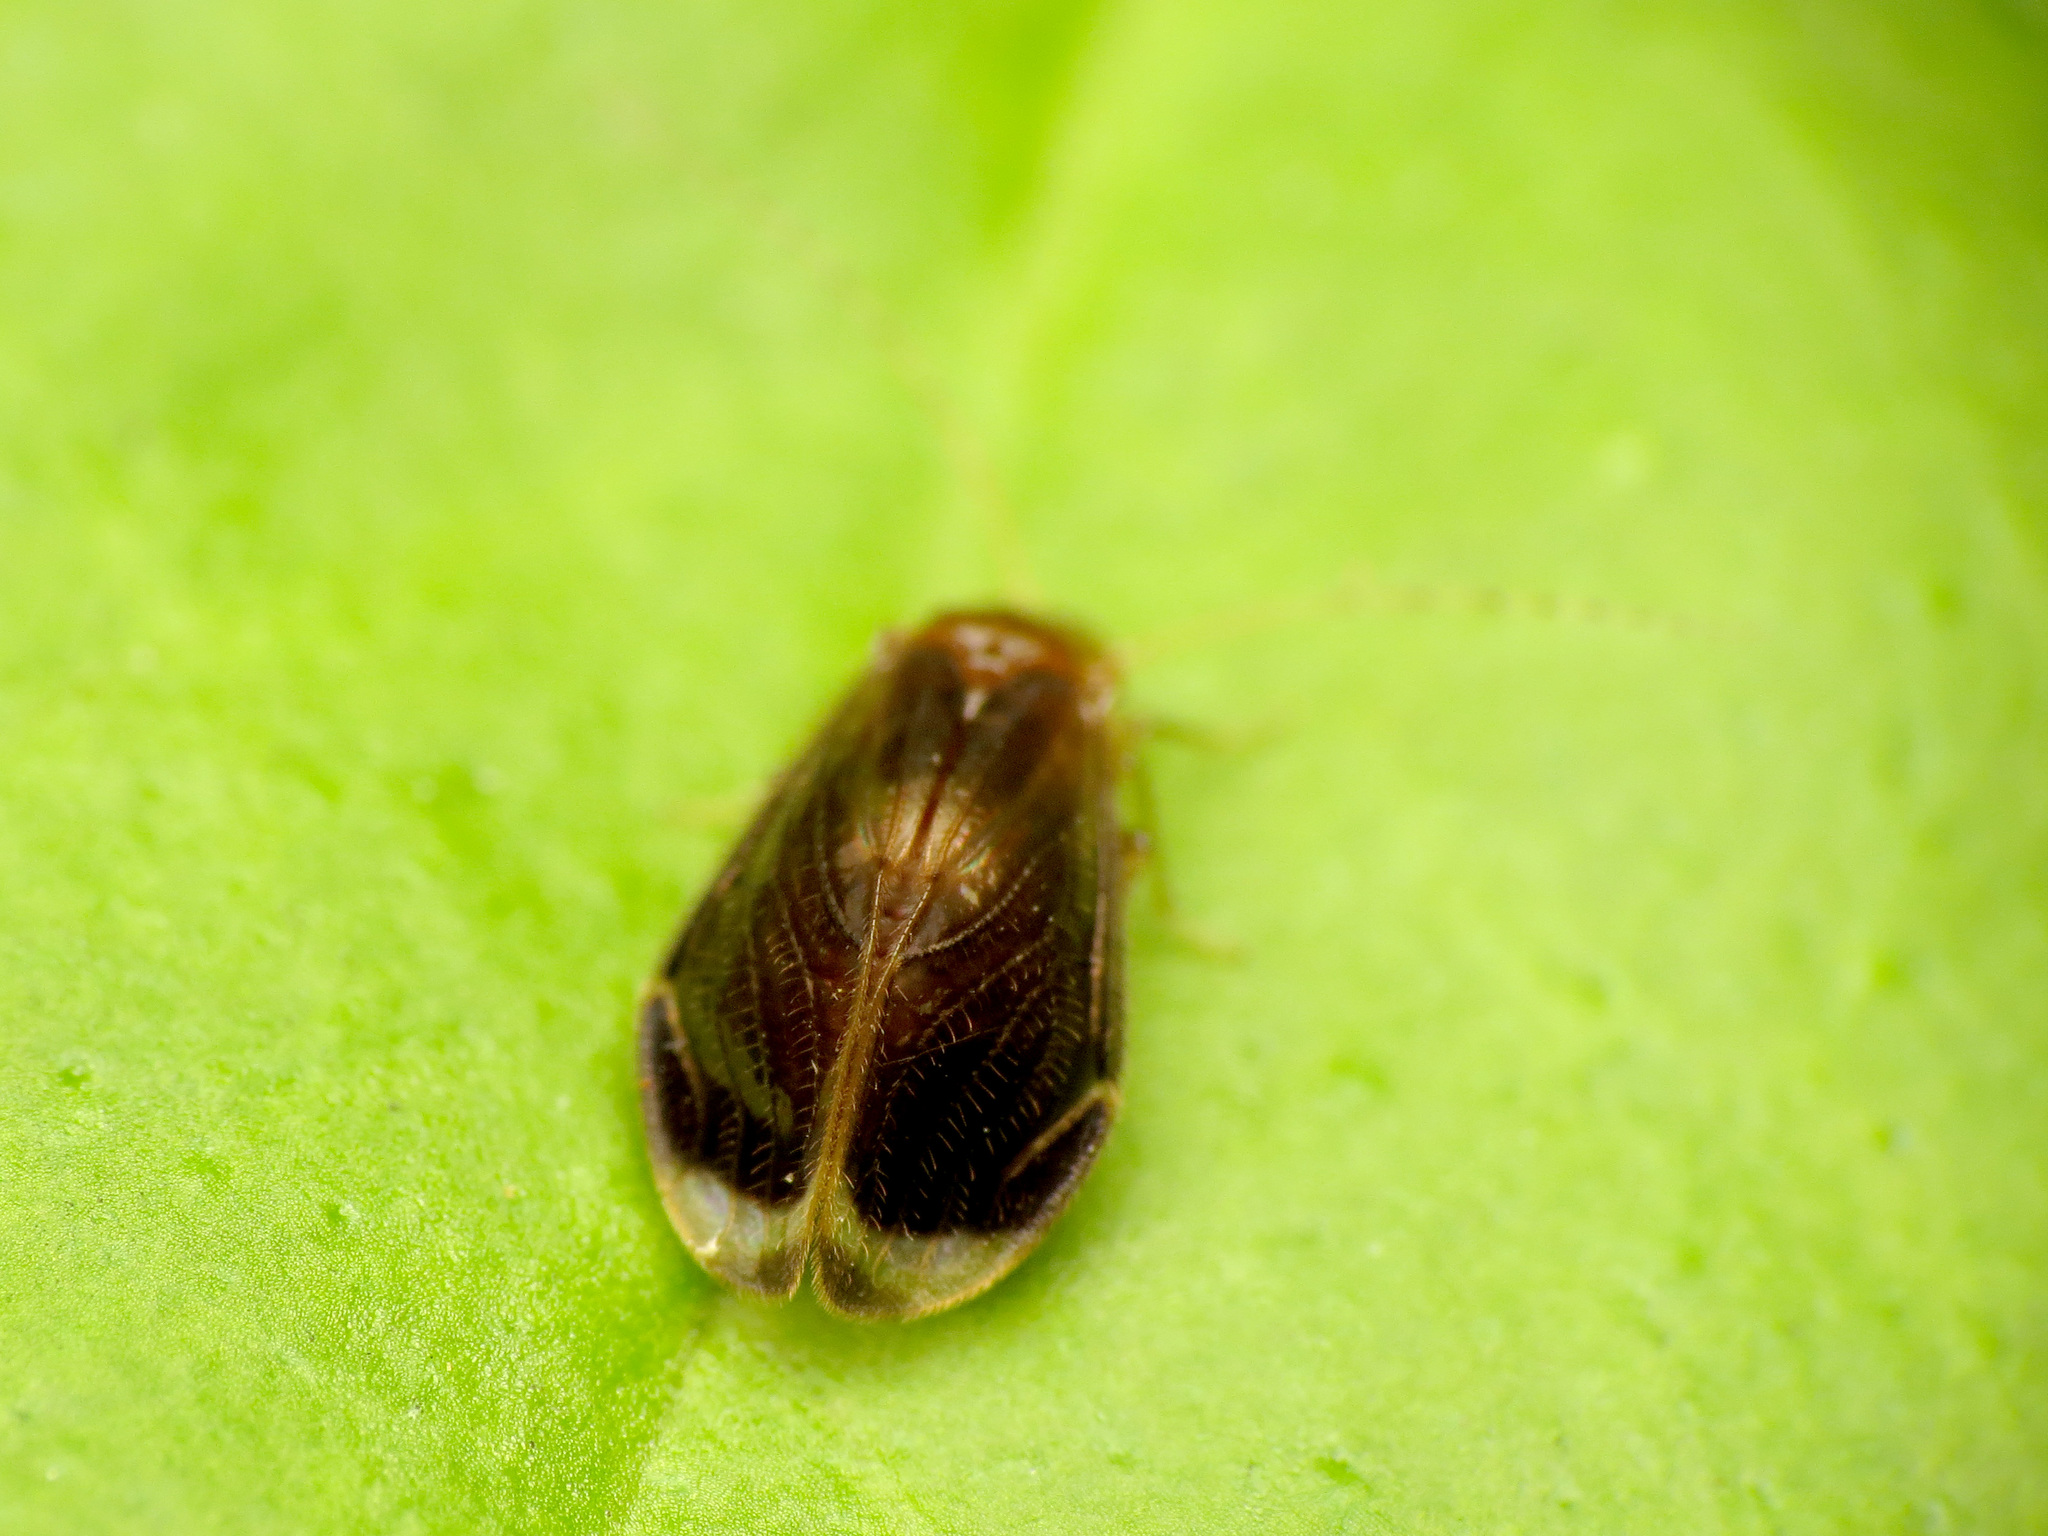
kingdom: Animalia
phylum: Arthropoda
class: Insecta
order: Psocodea
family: Amphipsocidae
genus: Polypsocus
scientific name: Polypsocus corruptus
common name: Corrupt barklouse
